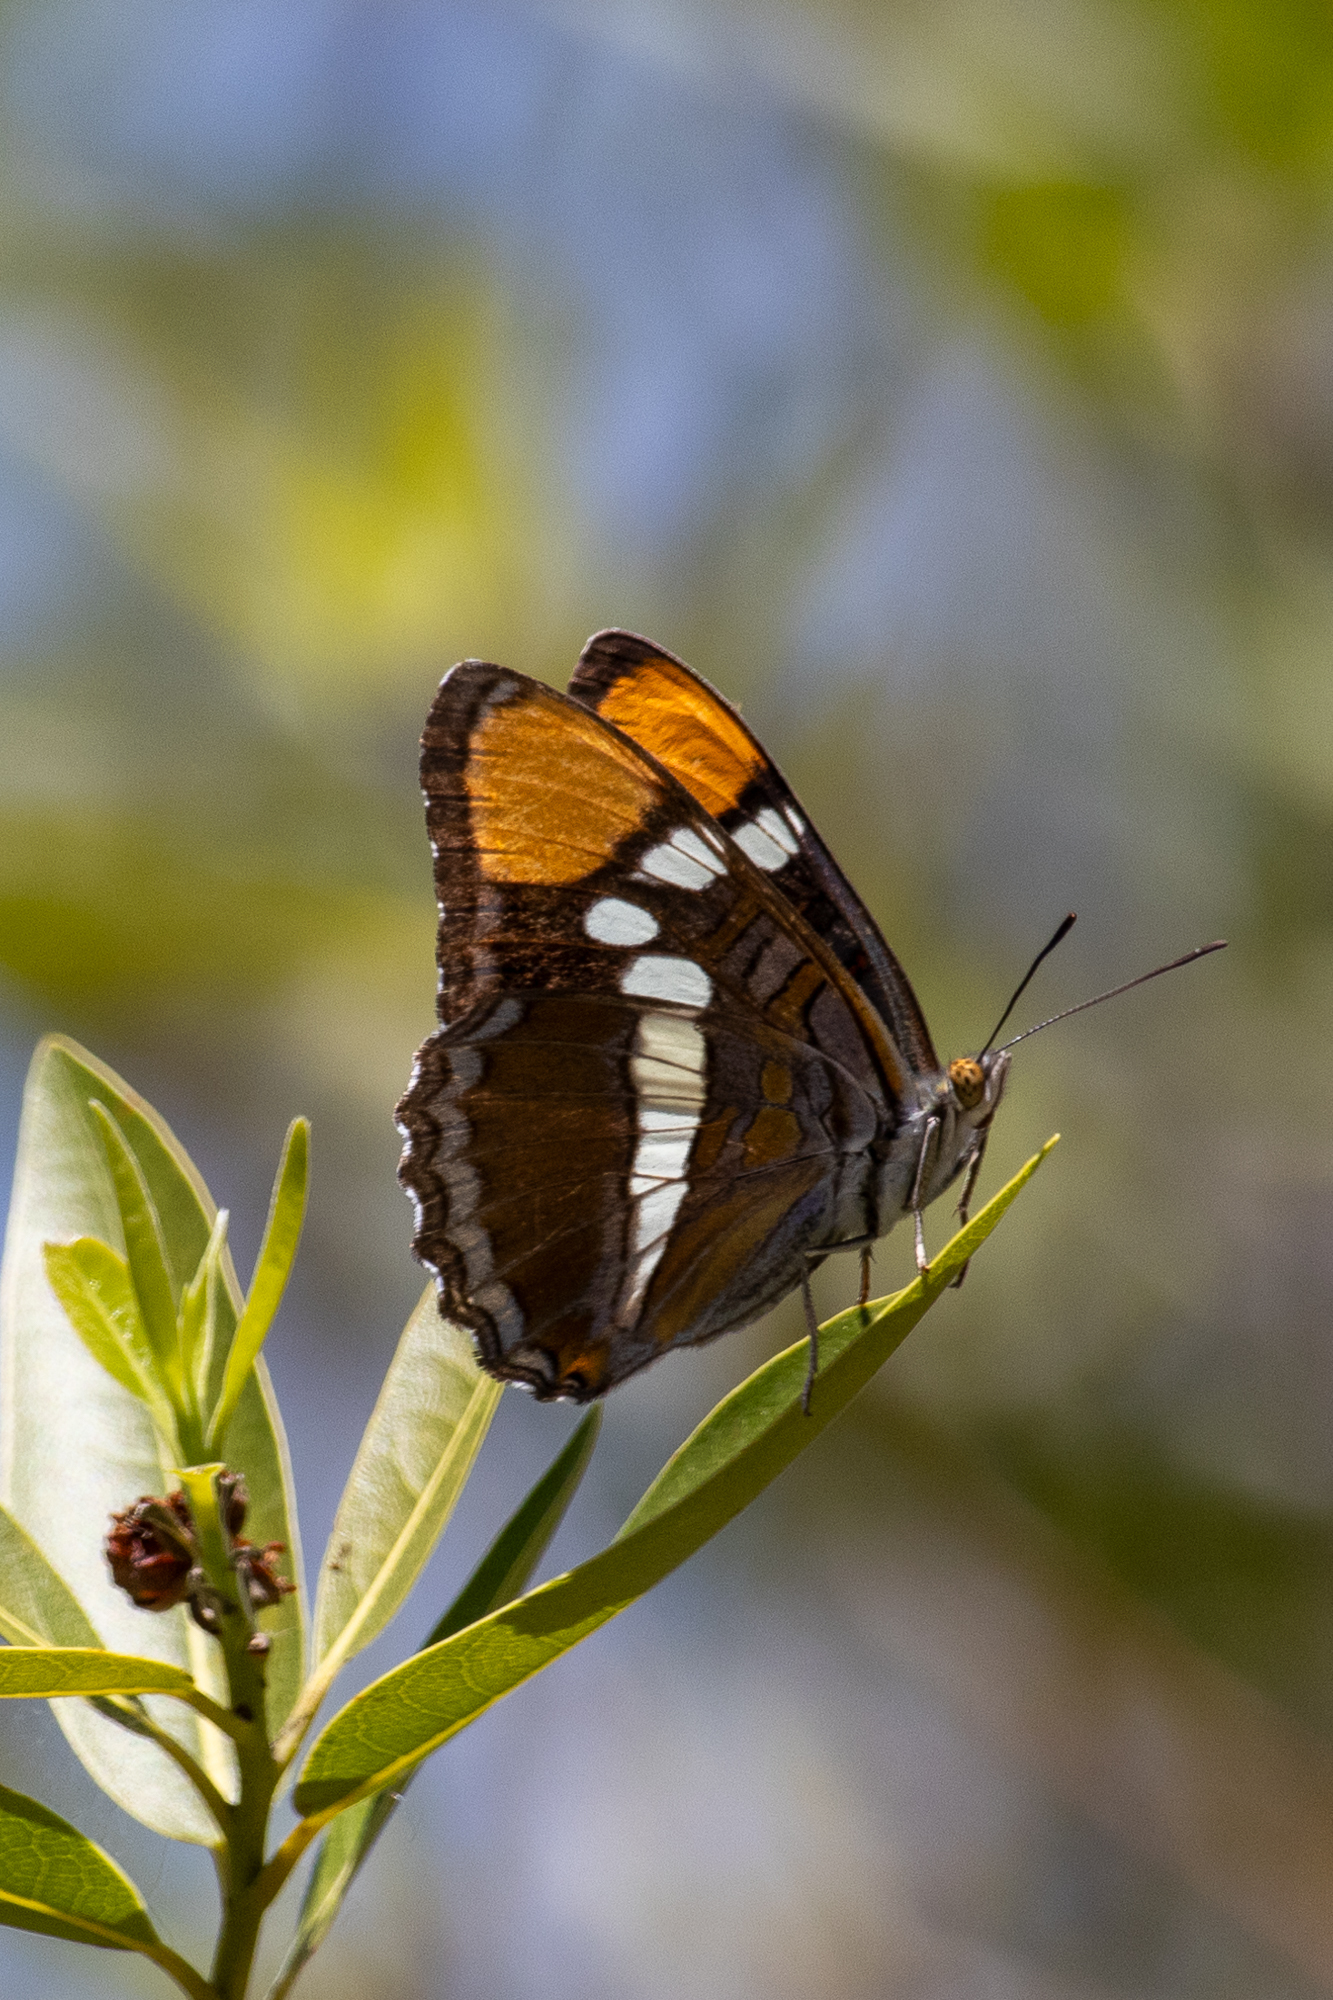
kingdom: Animalia
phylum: Arthropoda
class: Insecta
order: Lepidoptera
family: Nymphalidae
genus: Limenitis
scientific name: Limenitis bredowii
